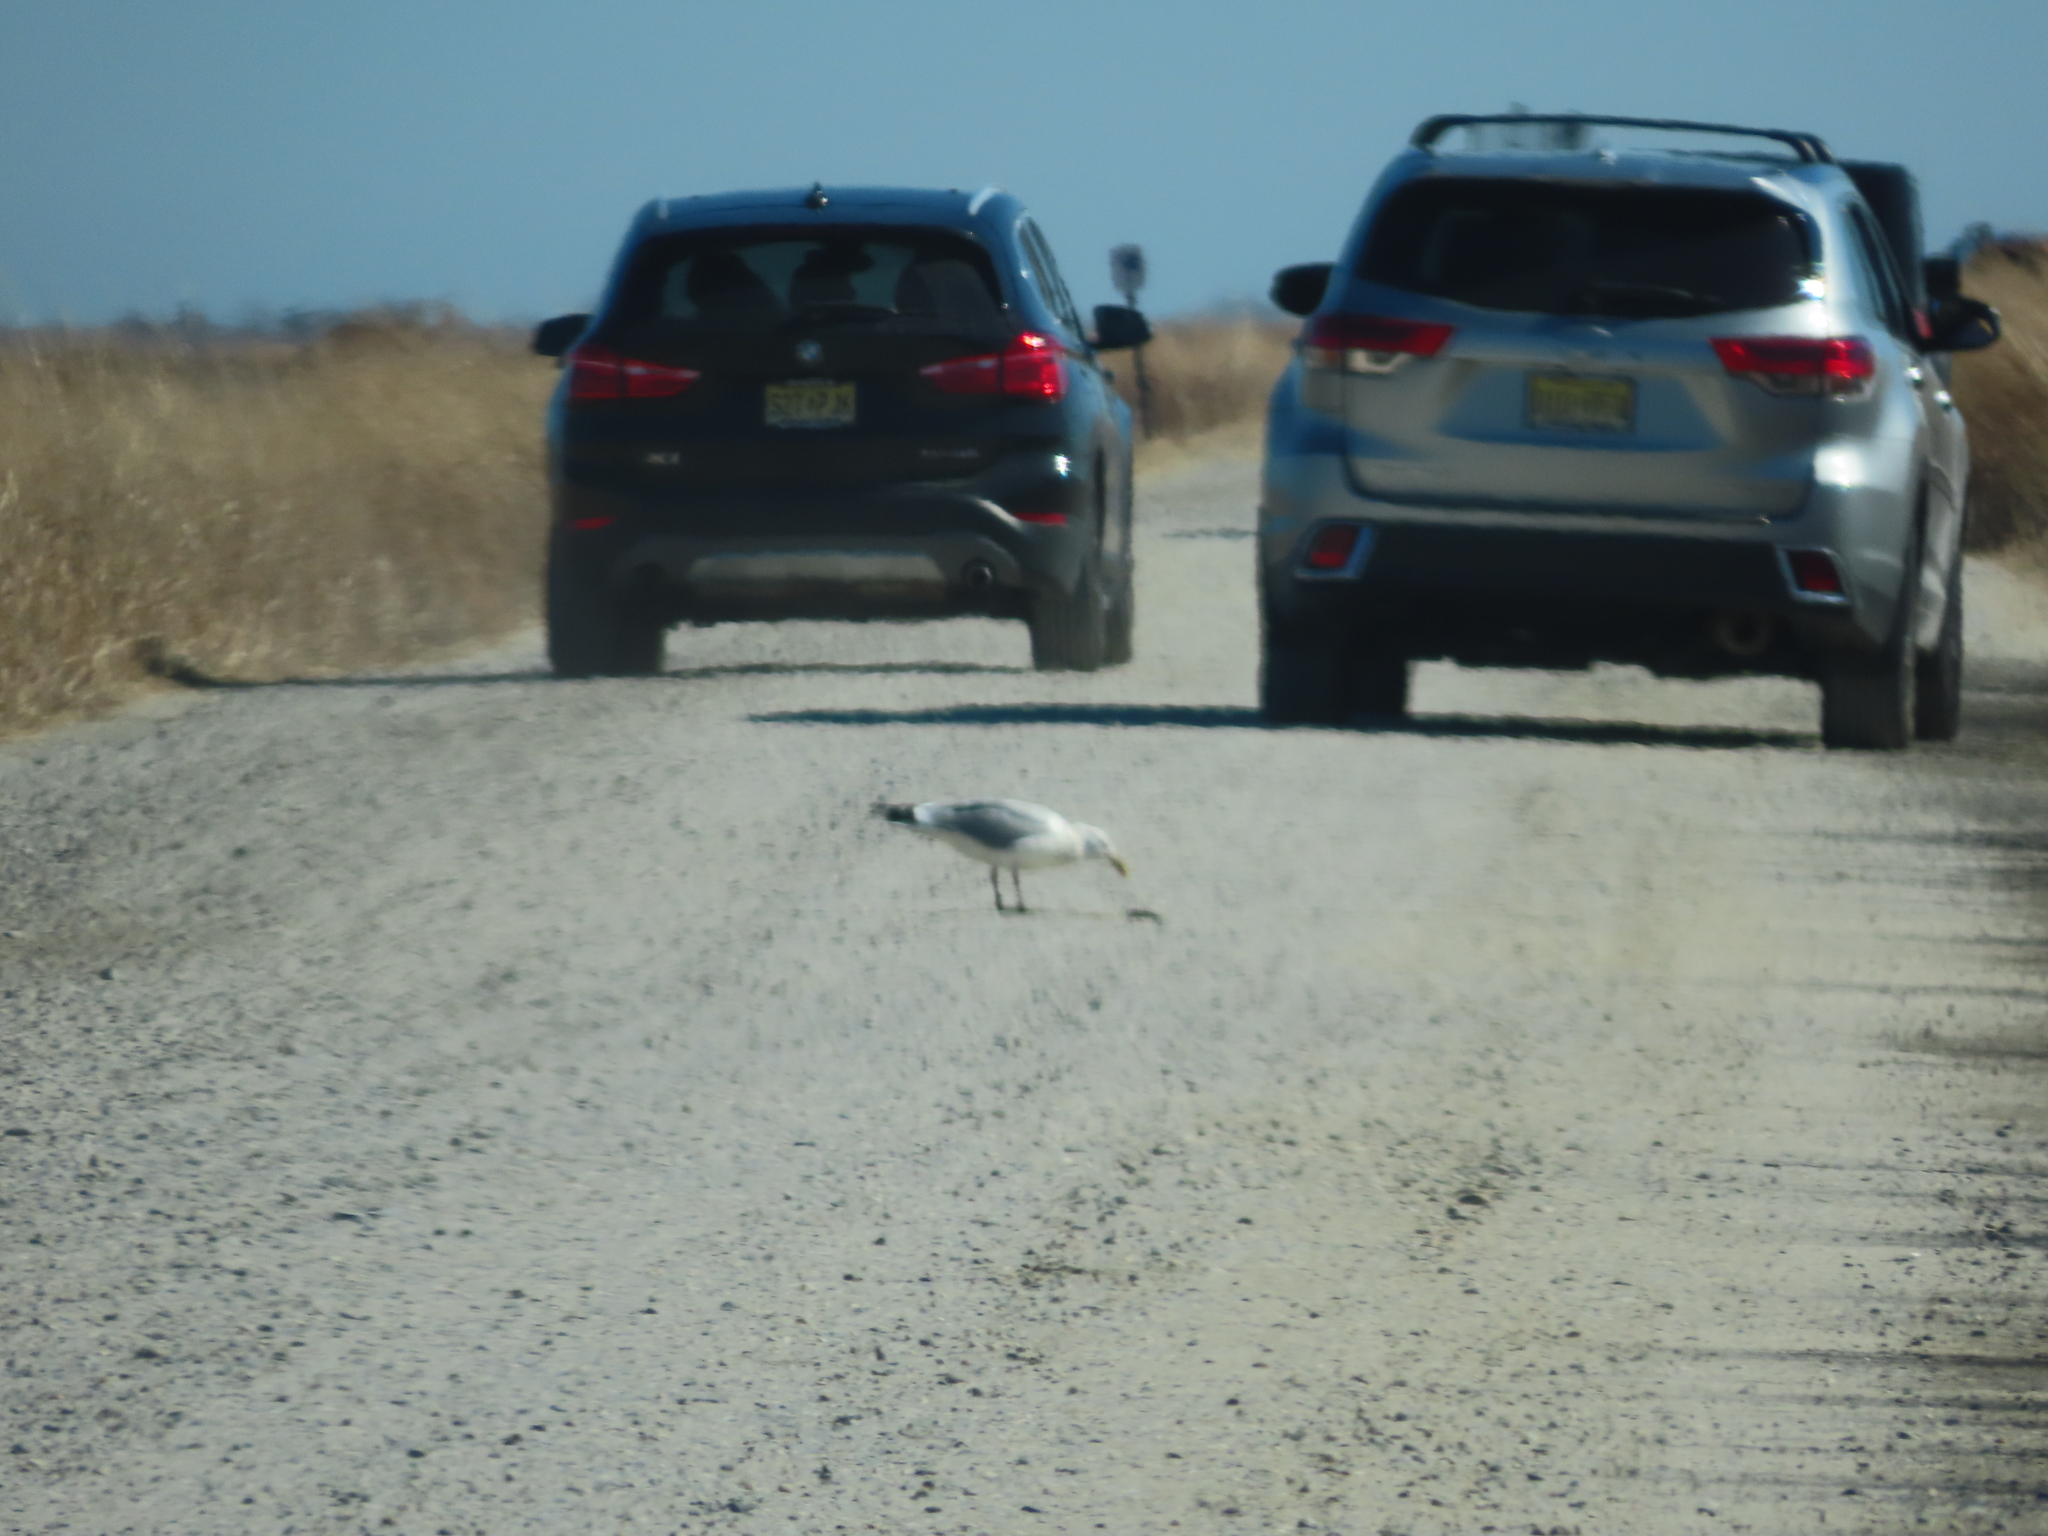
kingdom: Animalia
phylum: Chordata
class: Aves
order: Charadriiformes
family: Laridae
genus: Larus
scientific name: Larus argentatus
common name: Herring gull
